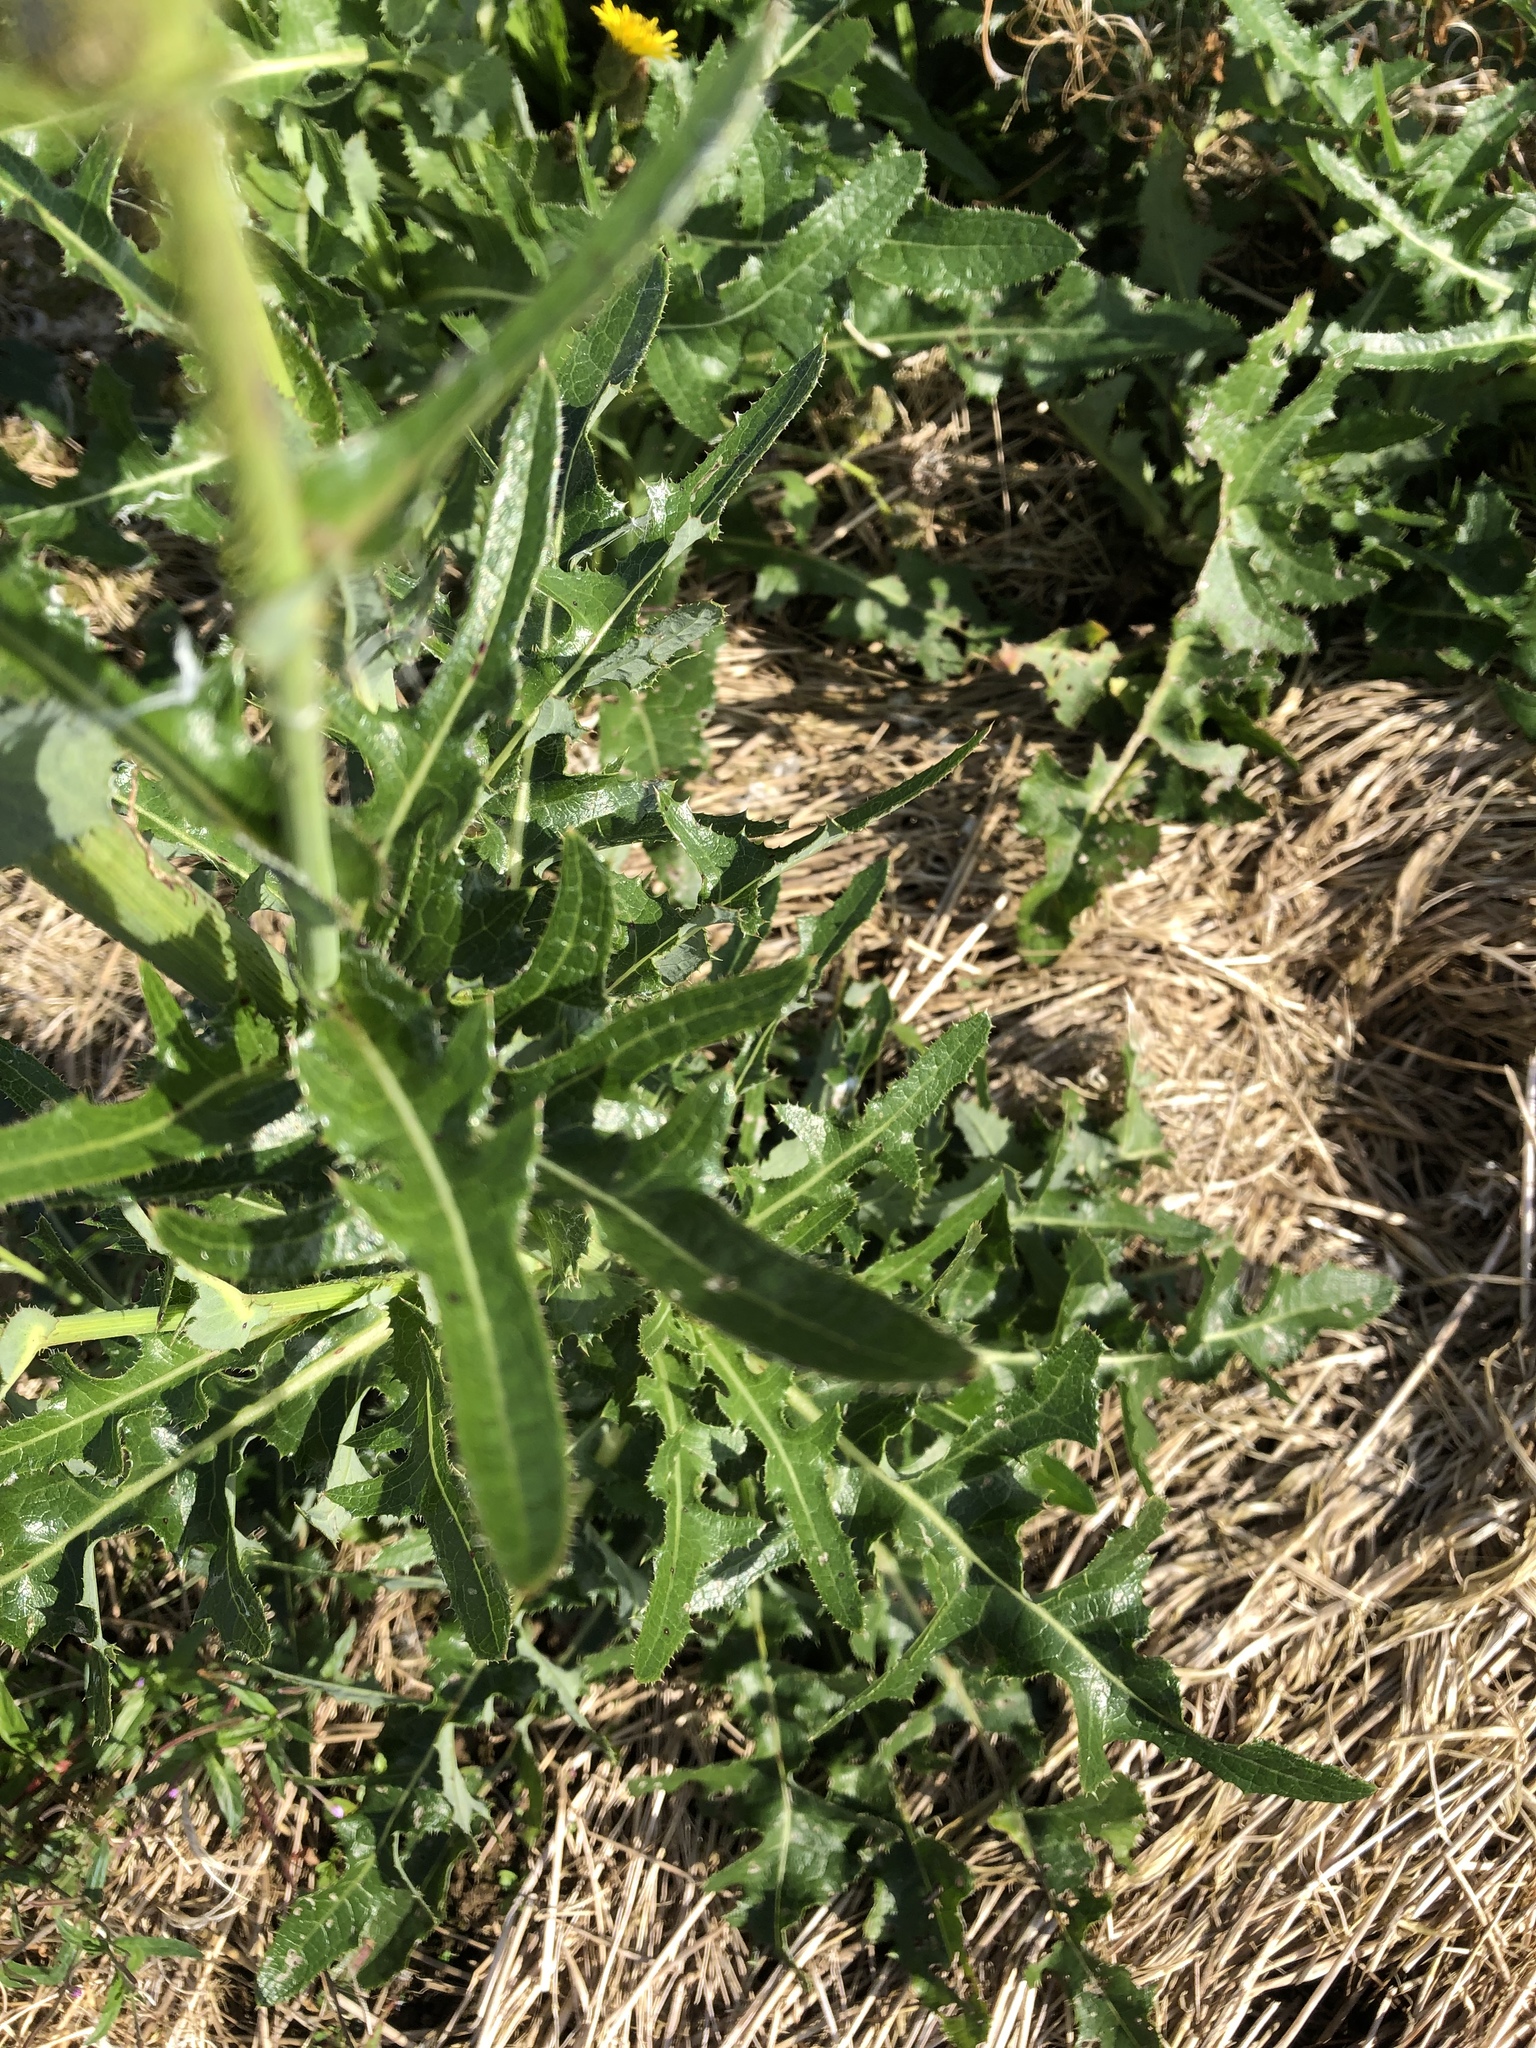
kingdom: Plantae
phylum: Tracheophyta
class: Magnoliopsida
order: Asterales
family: Asteraceae
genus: Sonchus
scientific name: Sonchus arvensis
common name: Perennial sow-thistle
